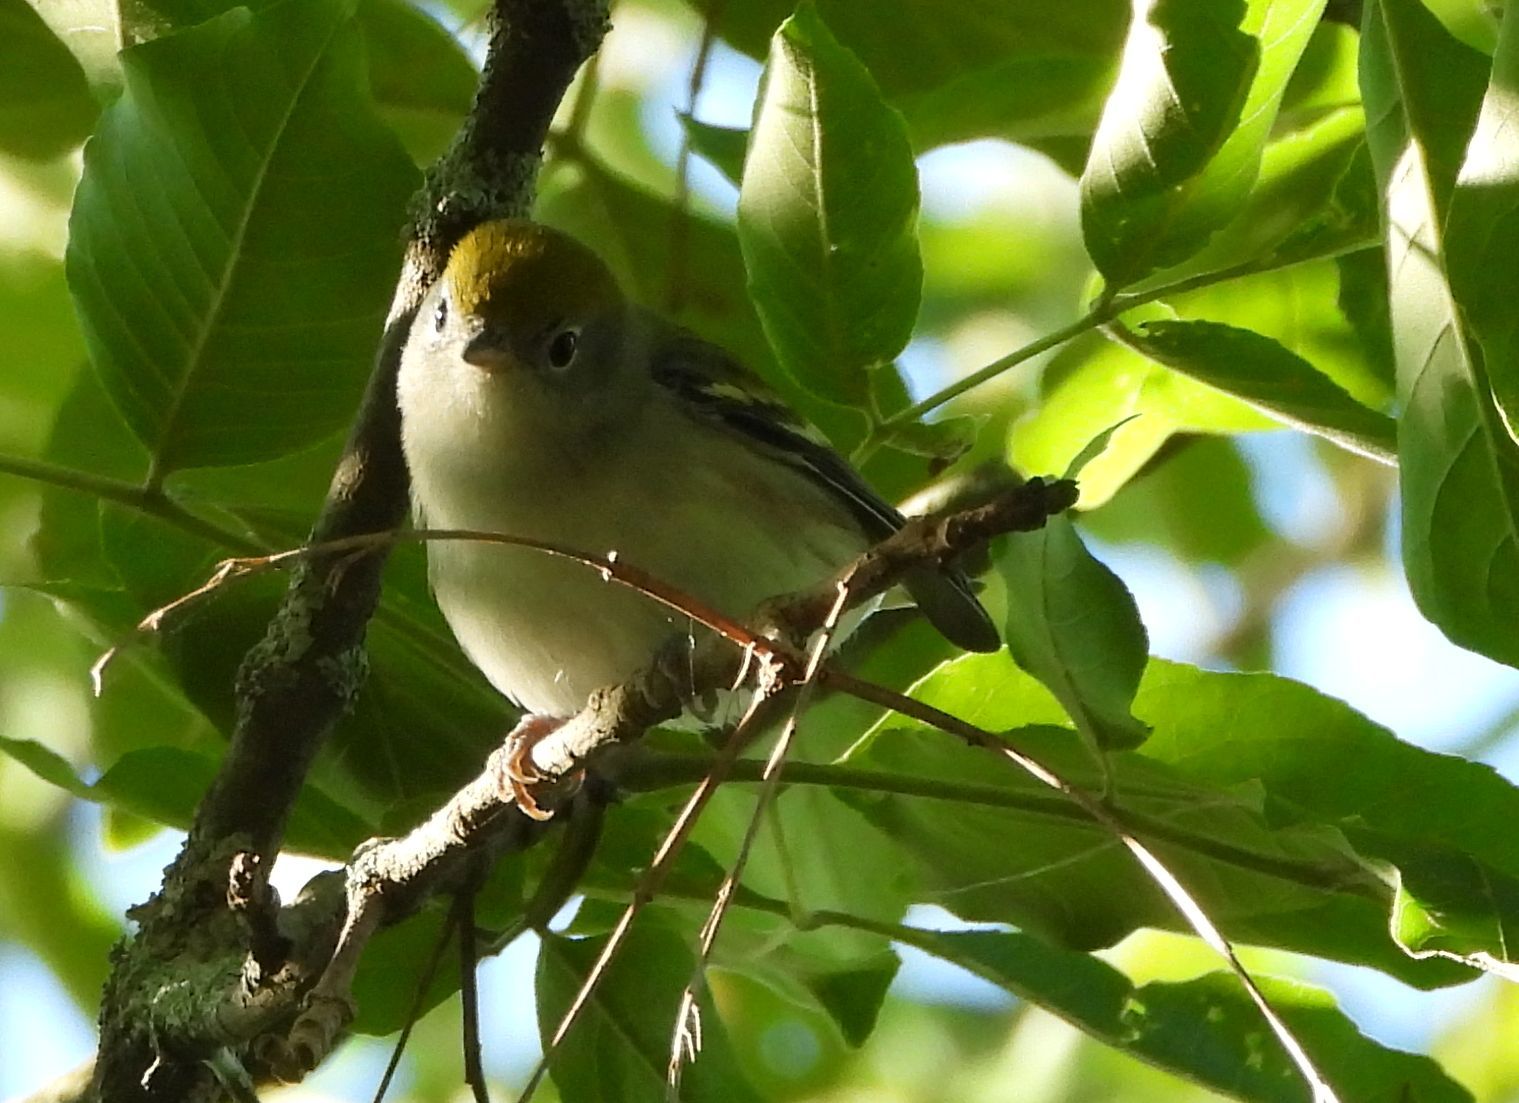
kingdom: Animalia
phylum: Chordata
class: Aves
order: Passeriformes
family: Parulidae
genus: Setophaga
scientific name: Setophaga pensylvanica
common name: Chestnut-sided warbler
